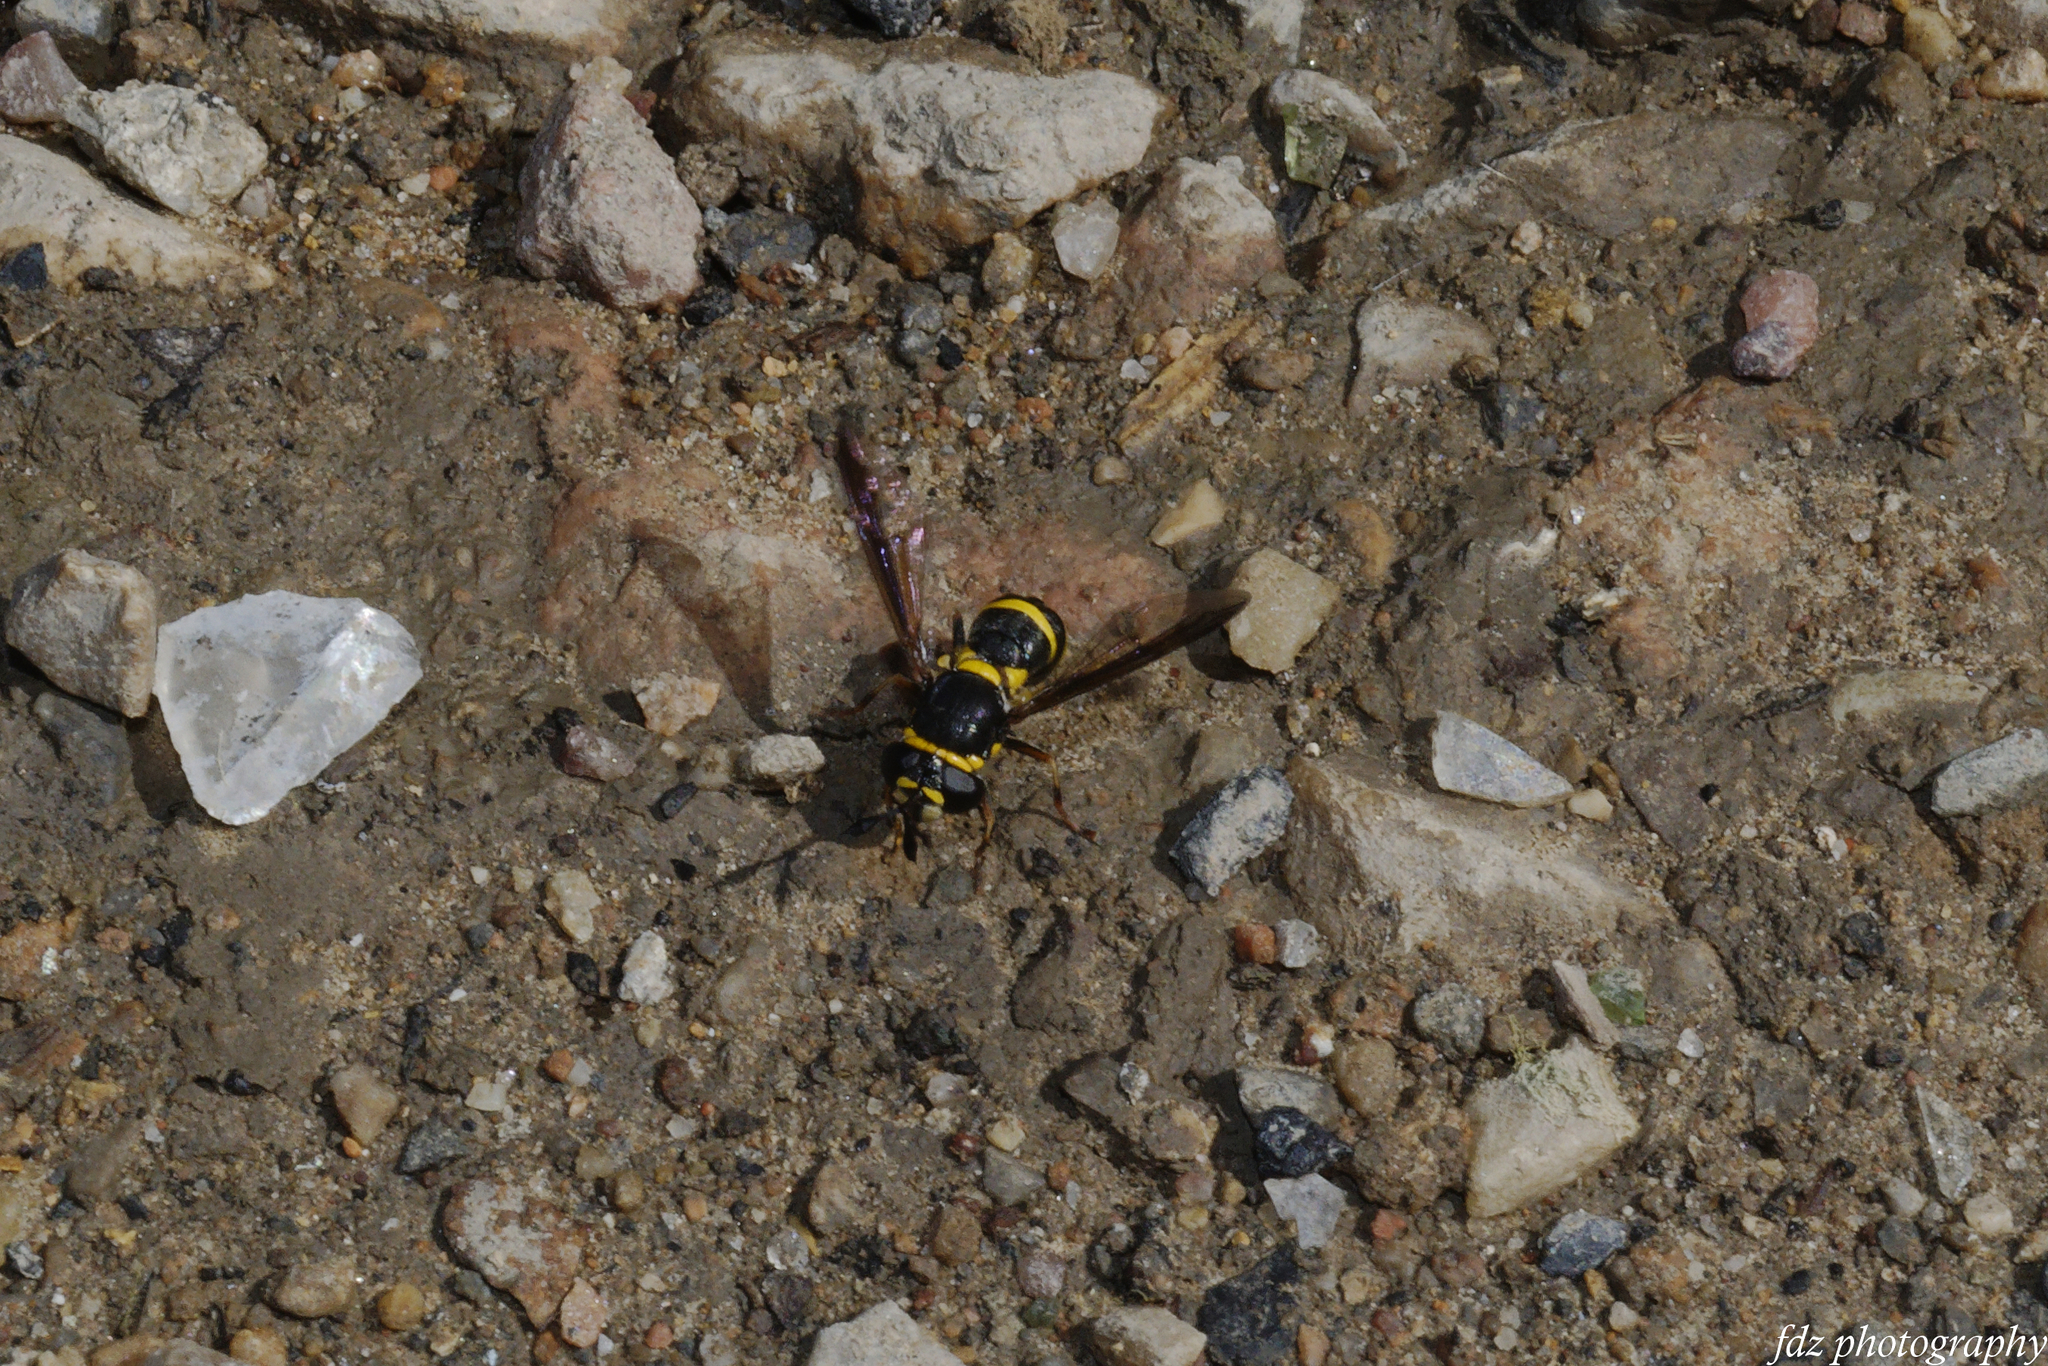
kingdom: Animalia
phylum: Arthropoda
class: Insecta
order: Diptera
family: Syrphidae
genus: Ceriana
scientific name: Ceriana vespiformis
